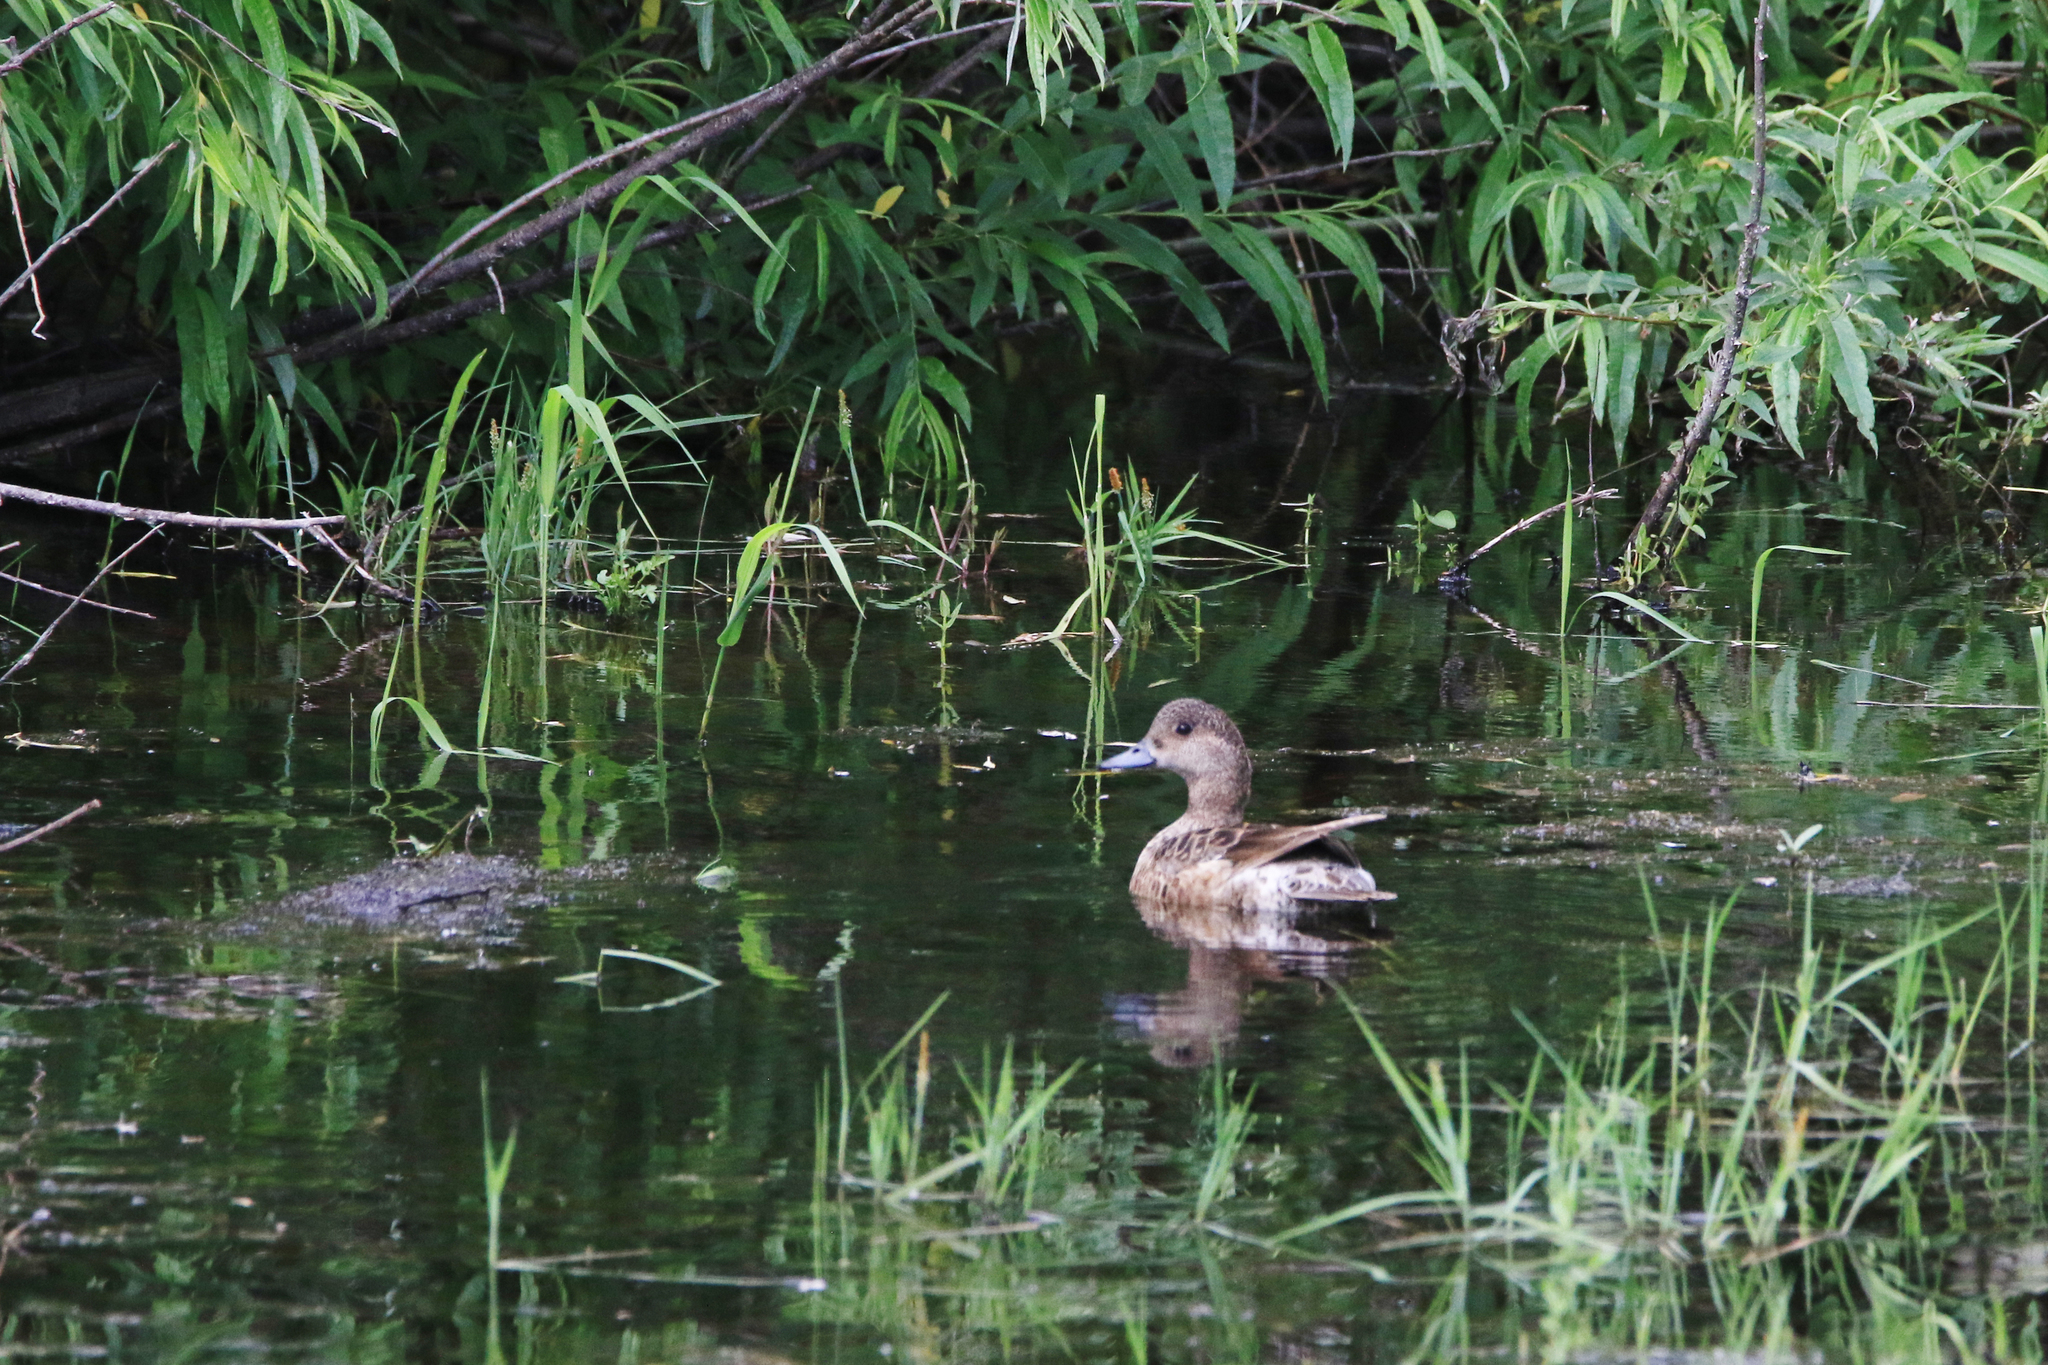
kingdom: Animalia
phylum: Chordata
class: Aves
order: Anseriformes
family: Anatidae
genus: Mareca
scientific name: Mareca penelope
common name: Eurasian wigeon
